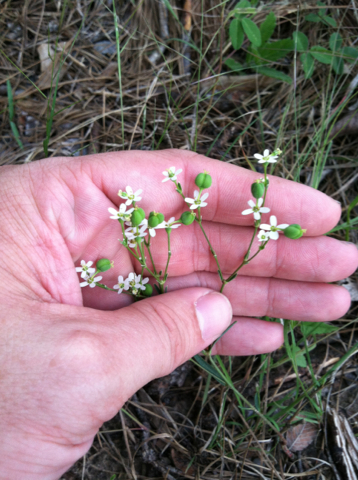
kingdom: Plantae
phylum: Tracheophyta
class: Magnoliopsida
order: Malpighiales
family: Euphorbiaceae
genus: Euphorbia
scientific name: Euphorbia discoidalis
